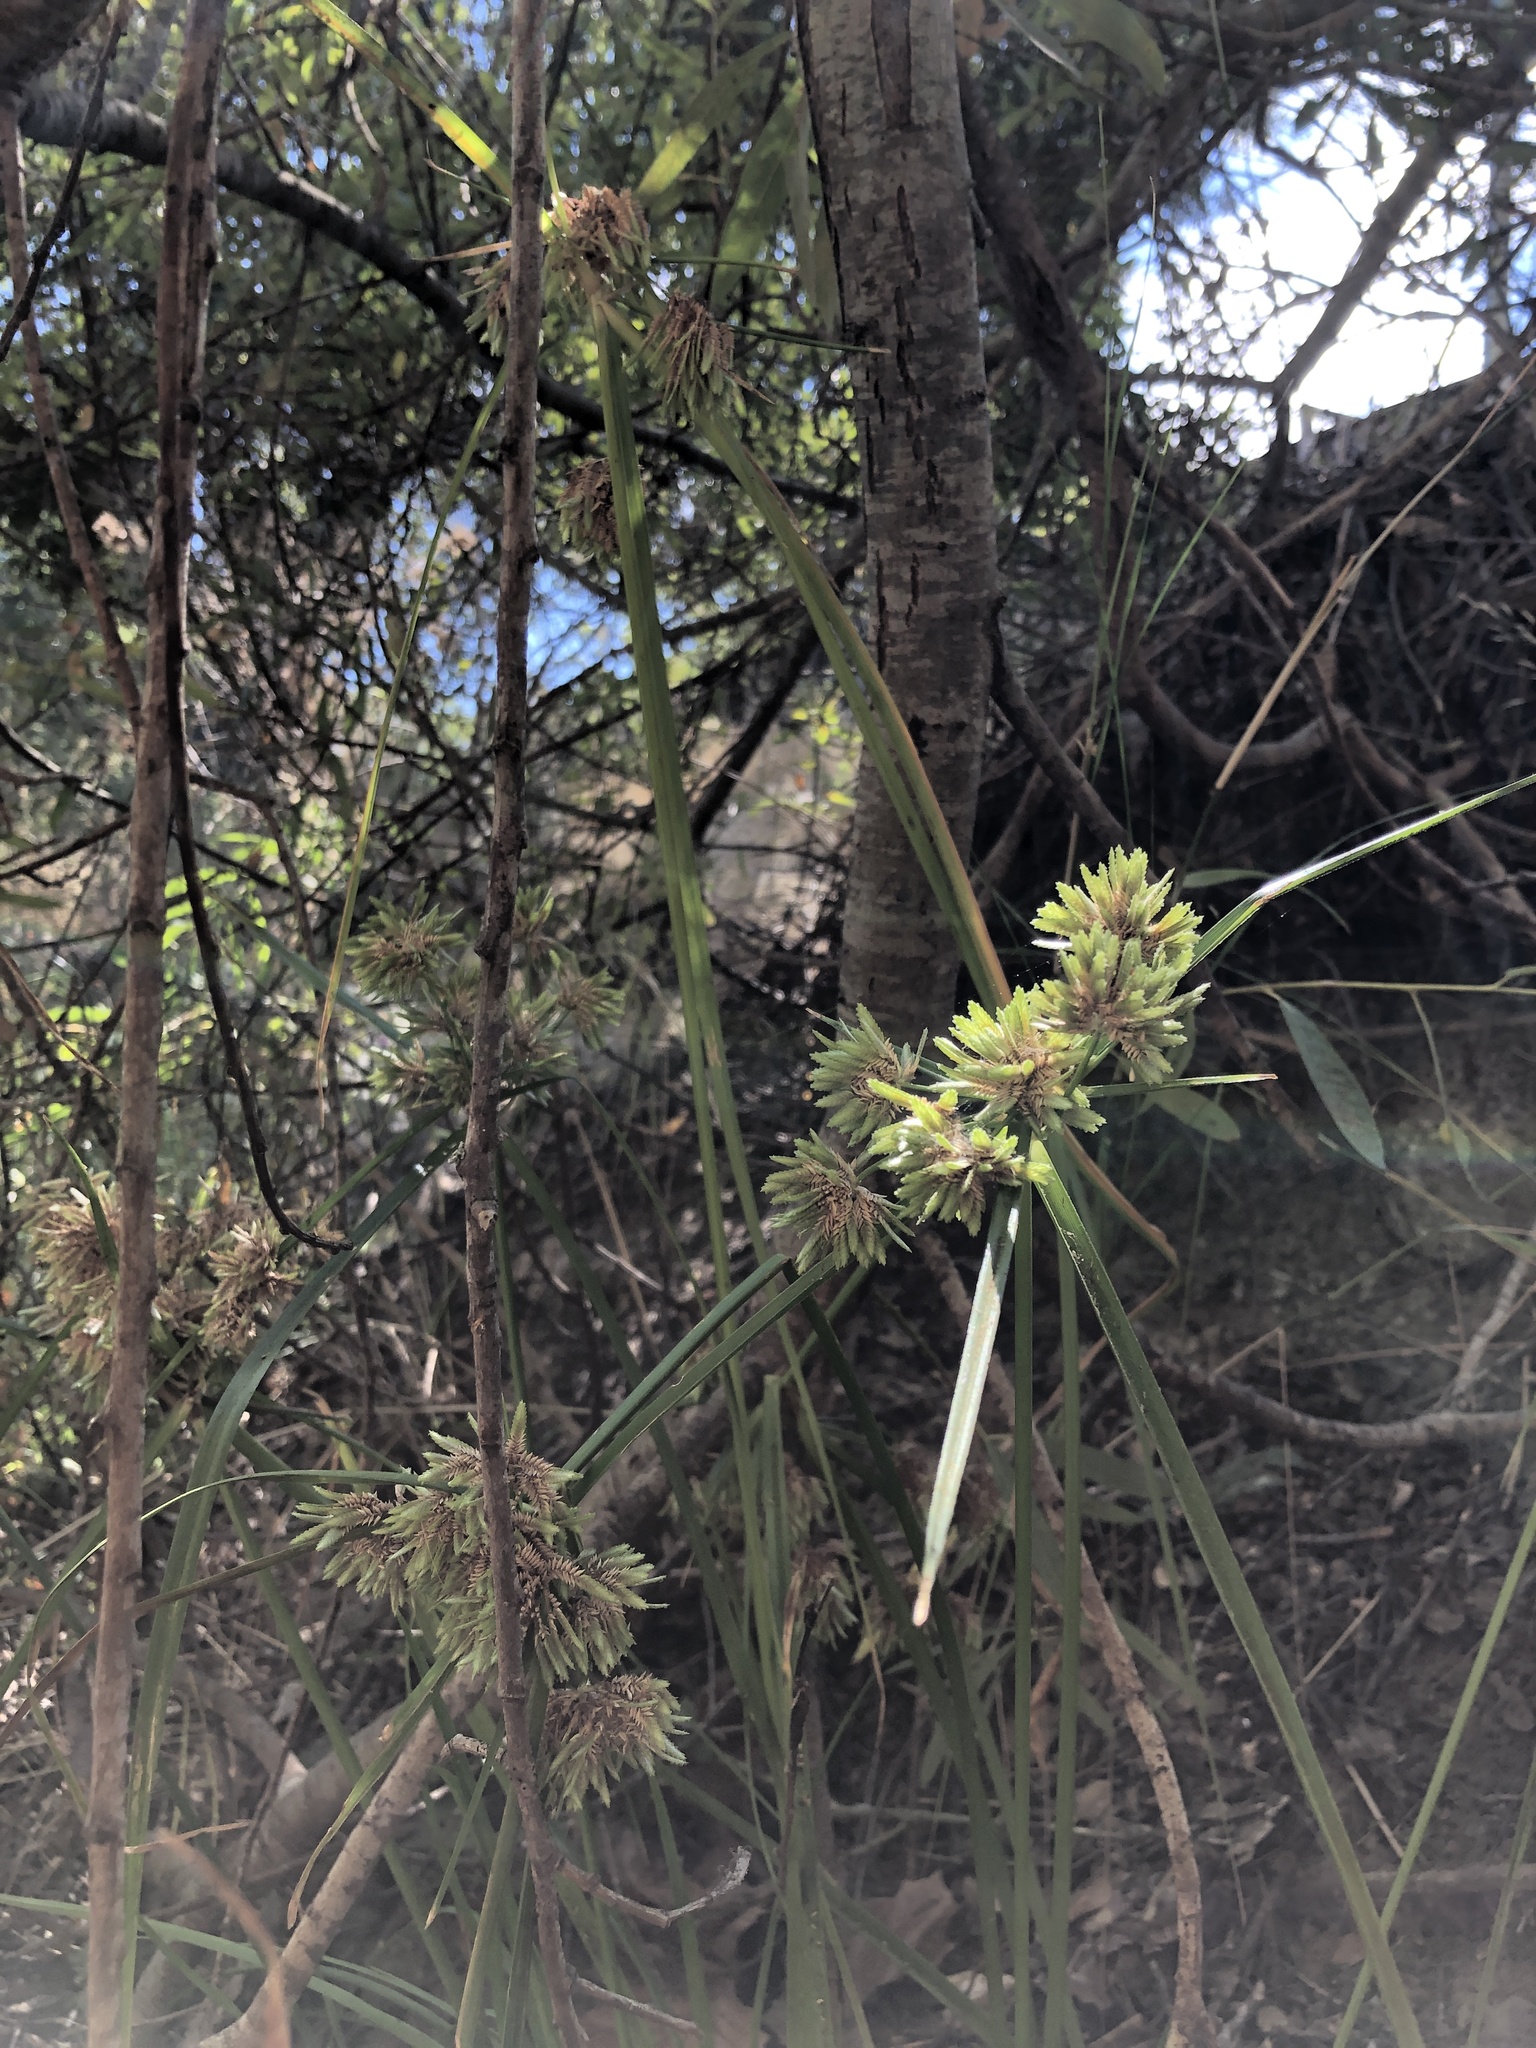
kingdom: Plantae
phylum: Tracheophyta
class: Liliopsida
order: Poales
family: Cyperaceae
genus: Cyperus
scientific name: Cyperus eragrostis
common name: Tall flatsedge
